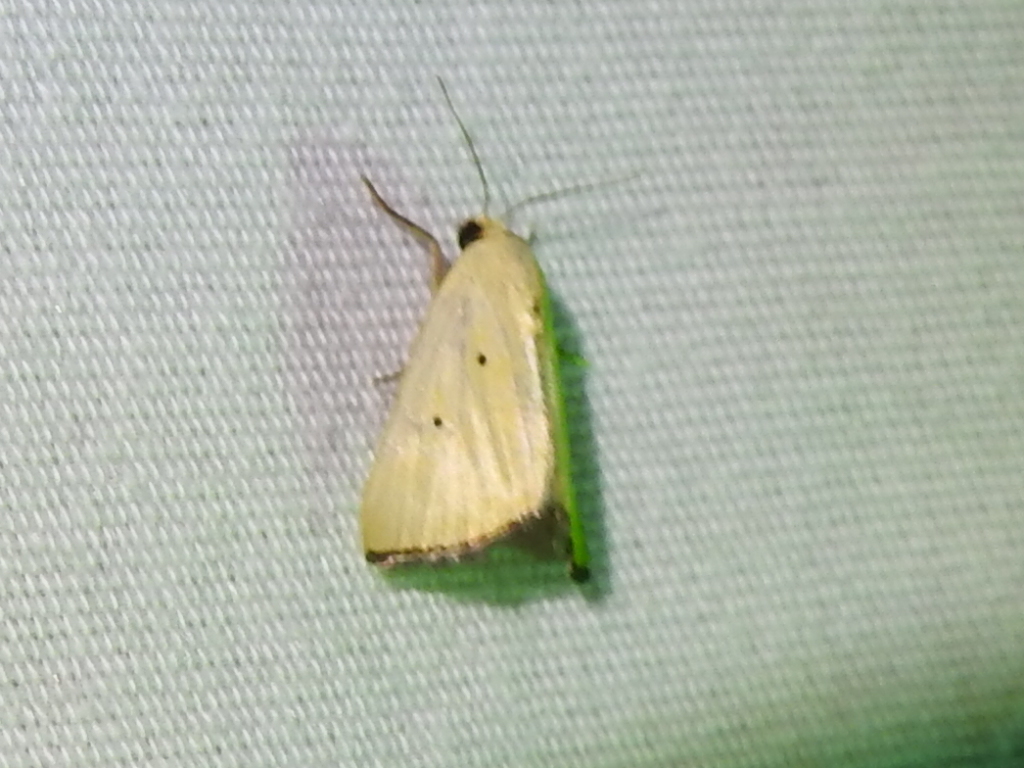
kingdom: Animalia
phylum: Arthropoda
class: Insecta
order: Lepidoptera
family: Noctuidae
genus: Marimatha
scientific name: Marimatha nigrofimbria
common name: Black-bordered lemon moth
